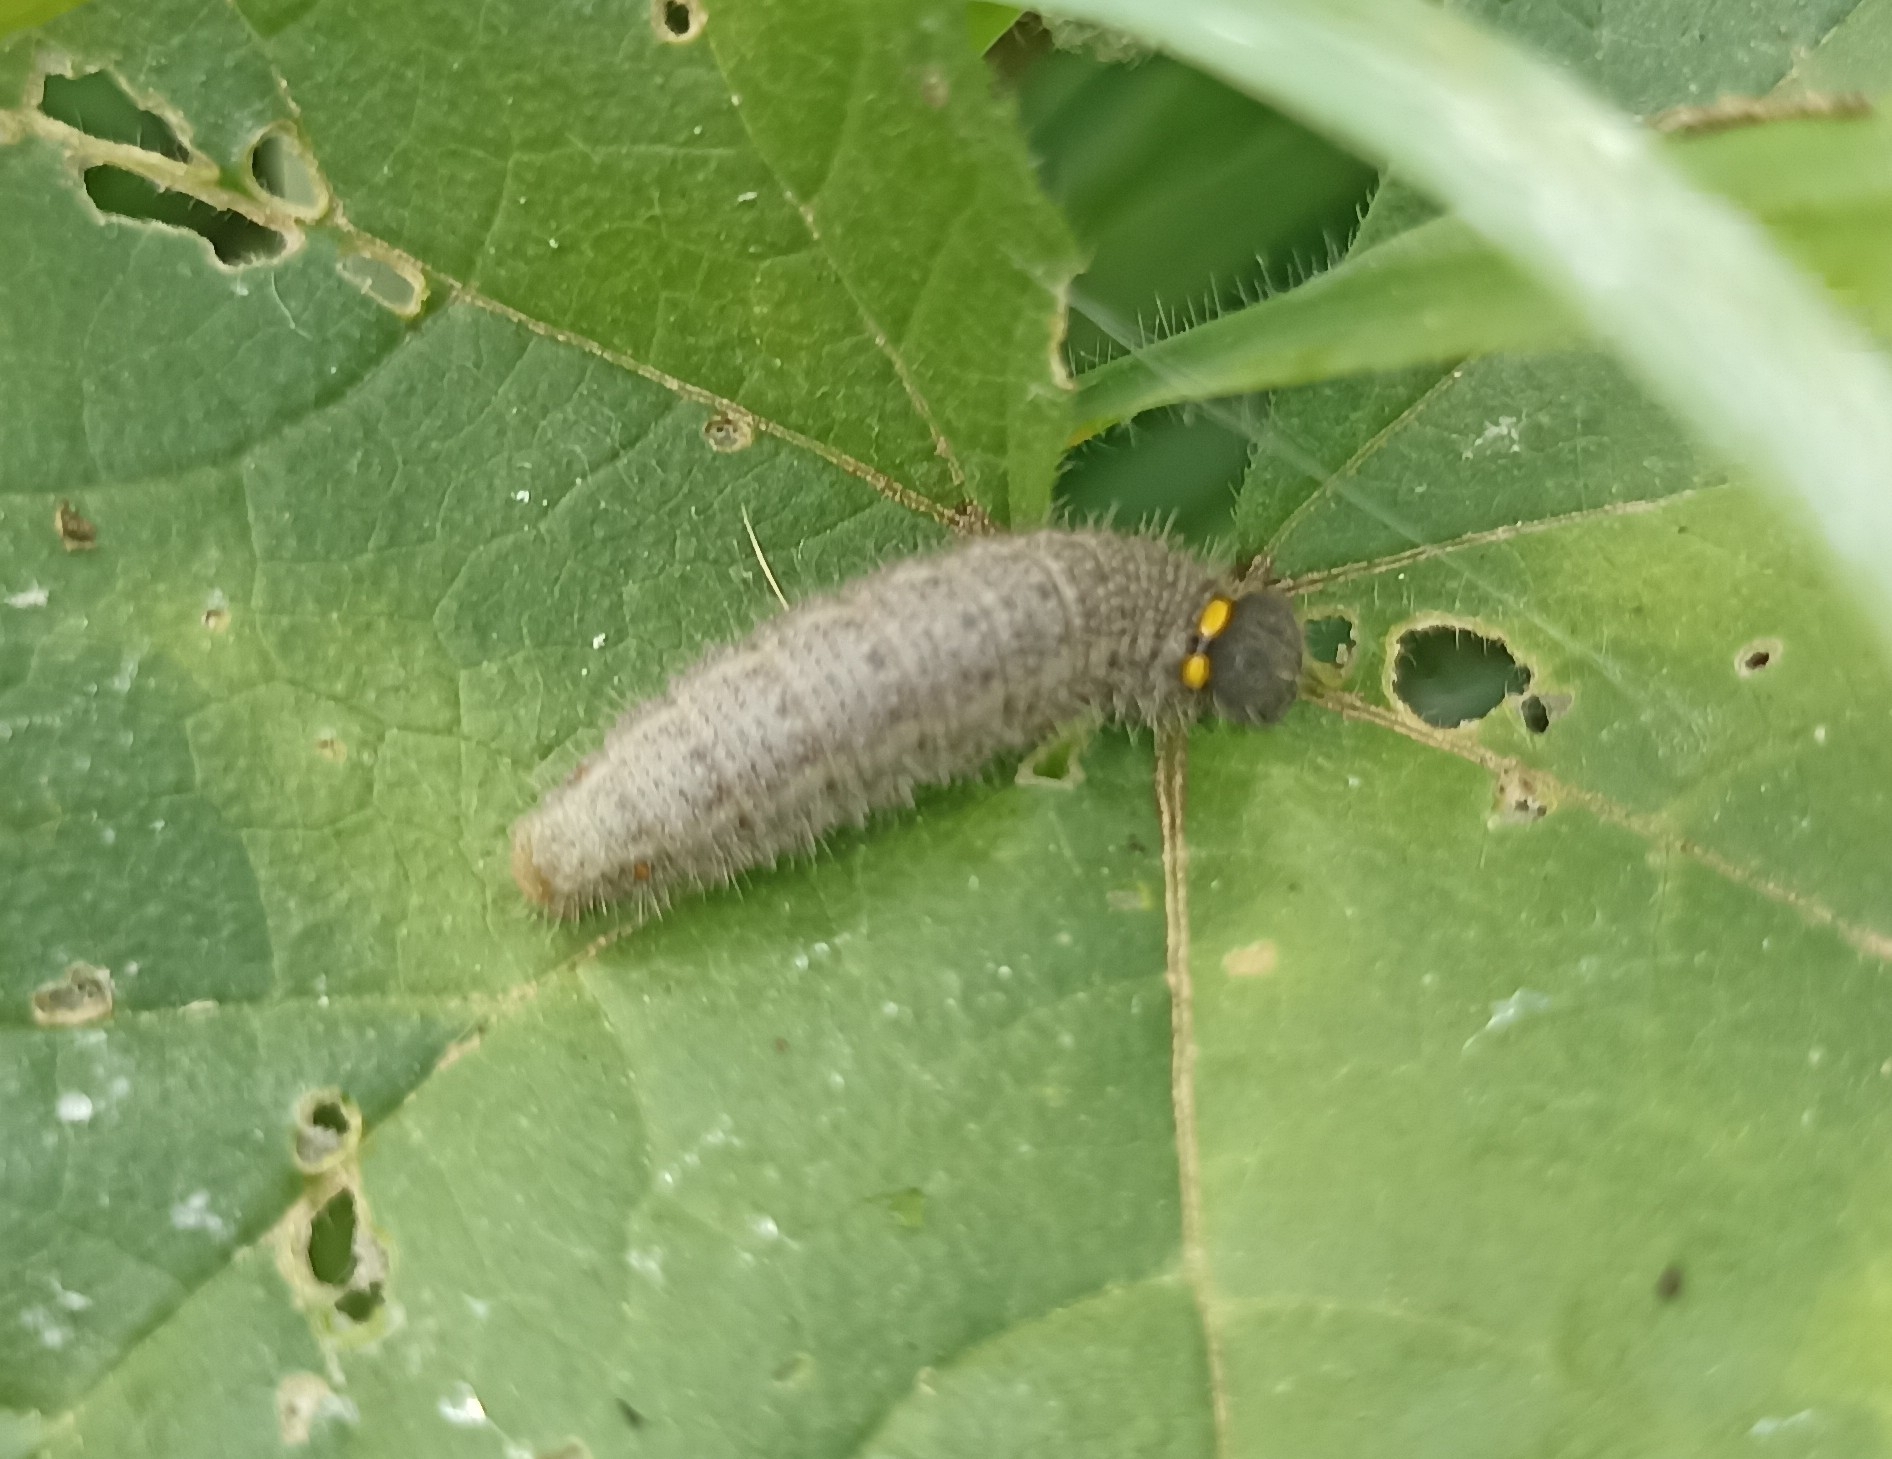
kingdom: Animalia
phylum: Arthropoda
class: Insecta
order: Lepidoptera
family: Hesperiidae
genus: Carcharodus
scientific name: Carcharodus alceae
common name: Mallow skipper
